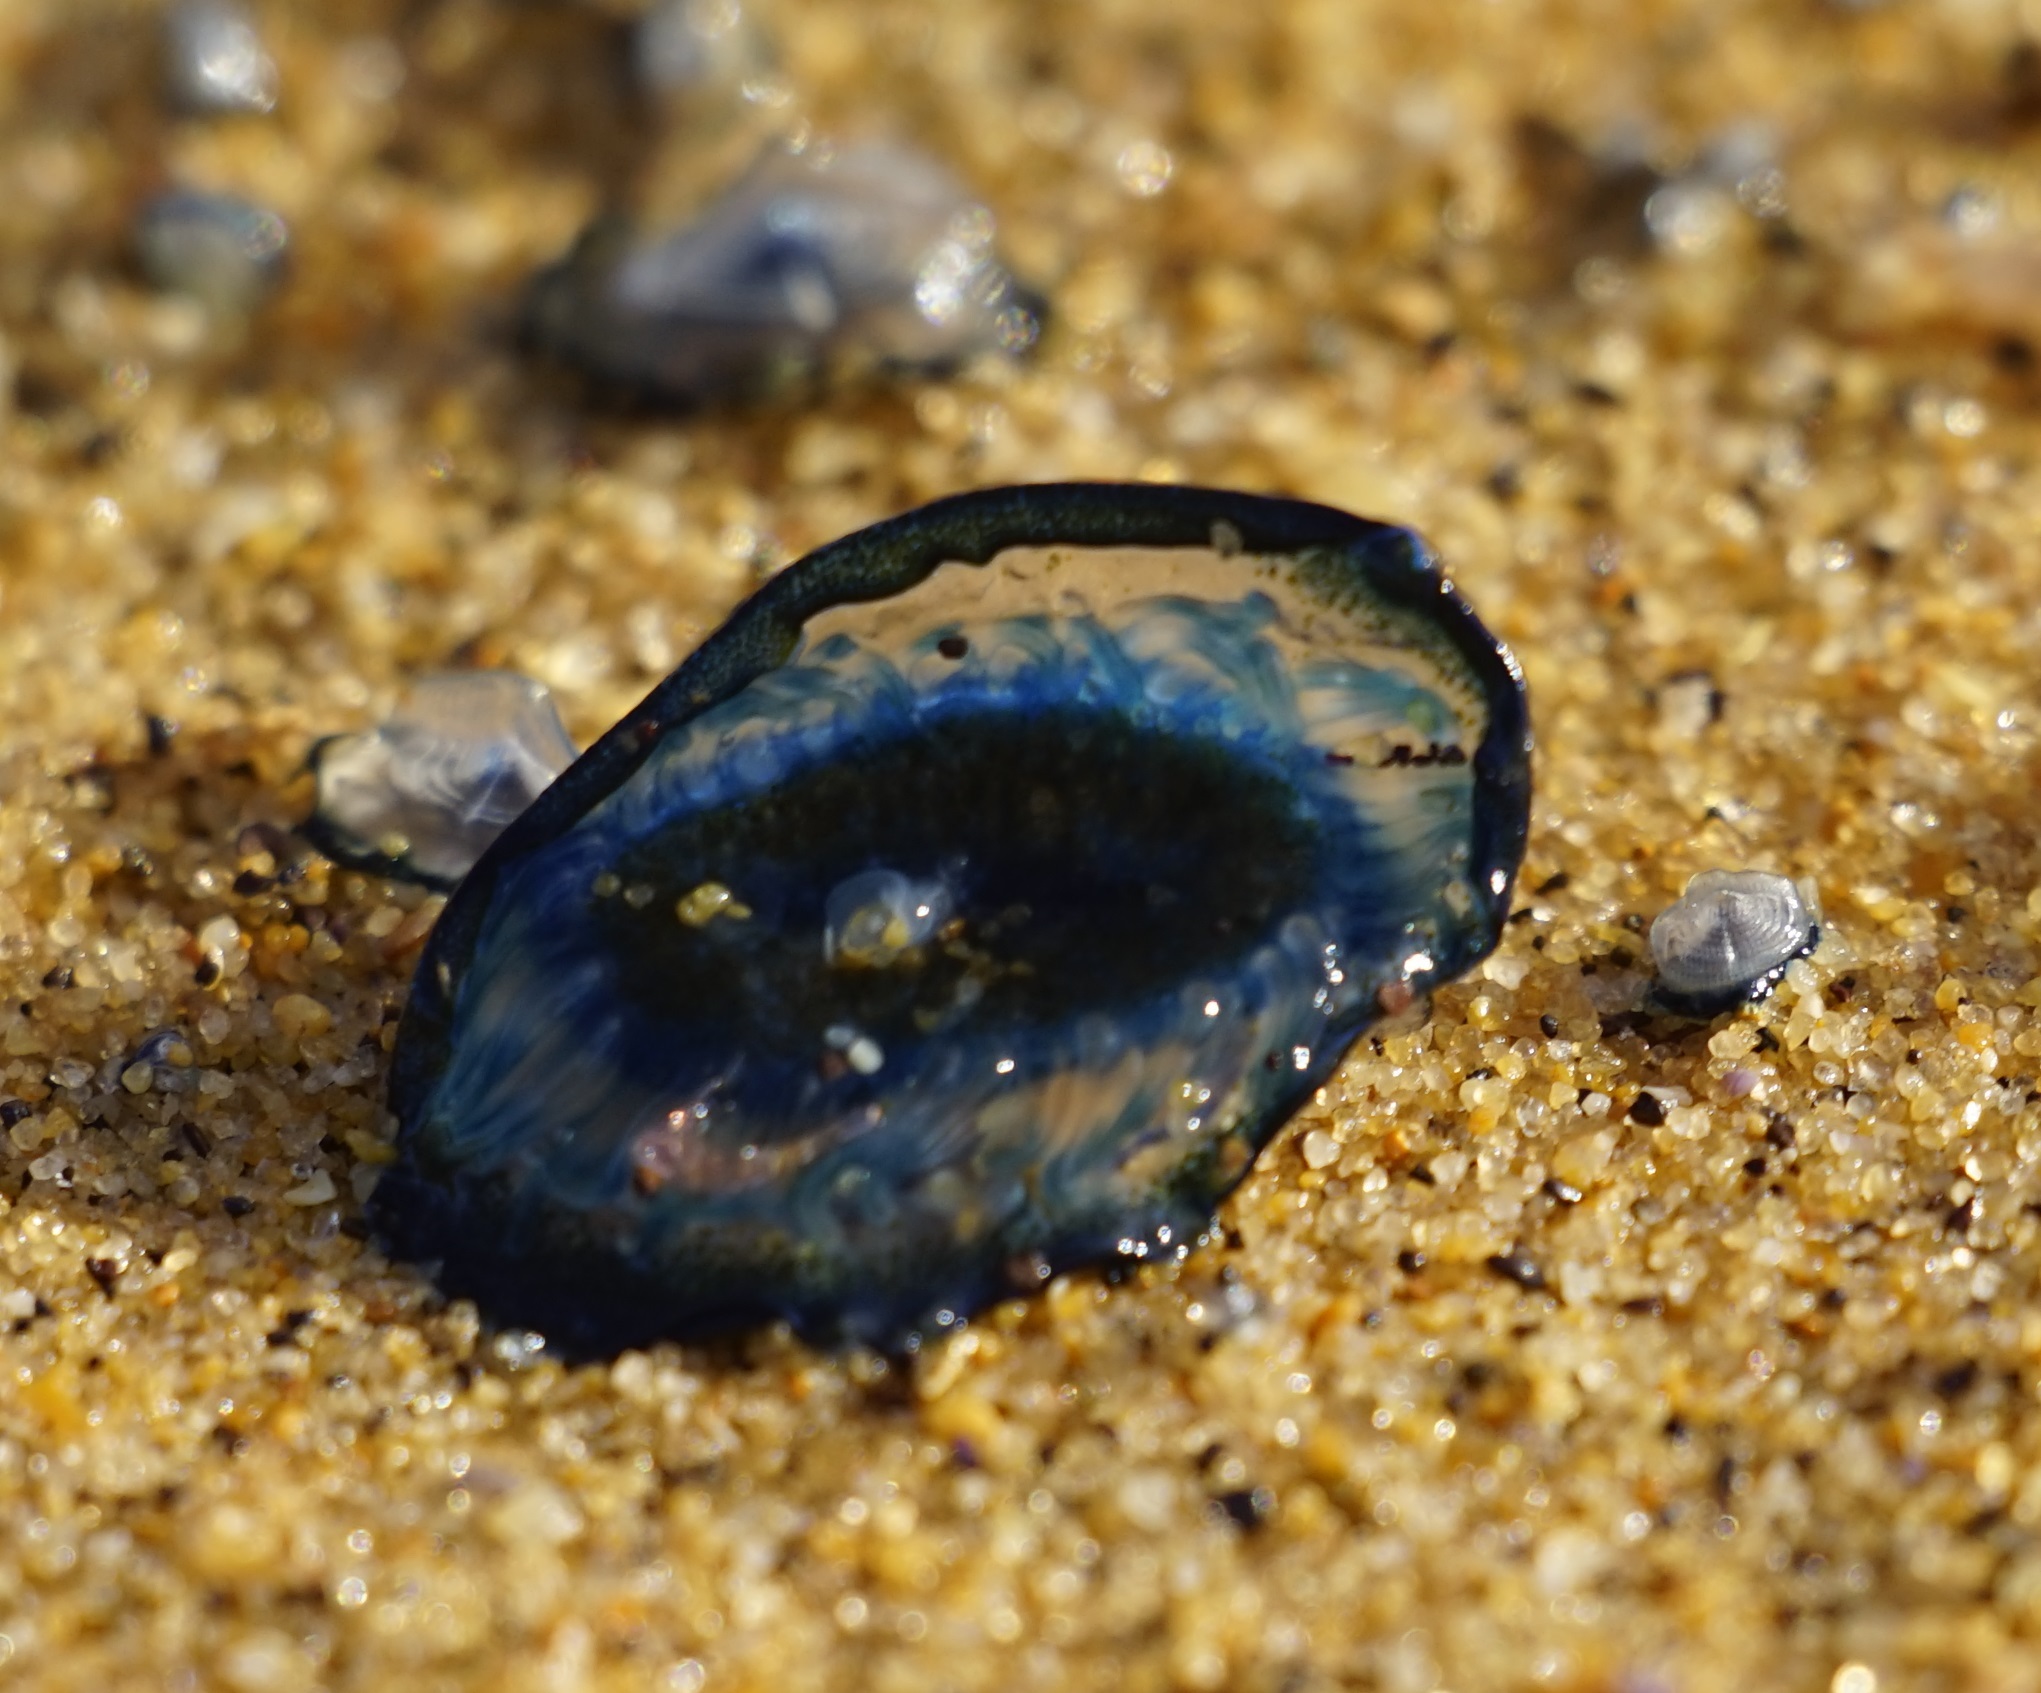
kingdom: Animalia
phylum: Cnidaria
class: Hydrozoa
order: Anthoathecata
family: Porpitidae
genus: Velella
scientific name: Velella velella
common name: By-the-wind-sailor
